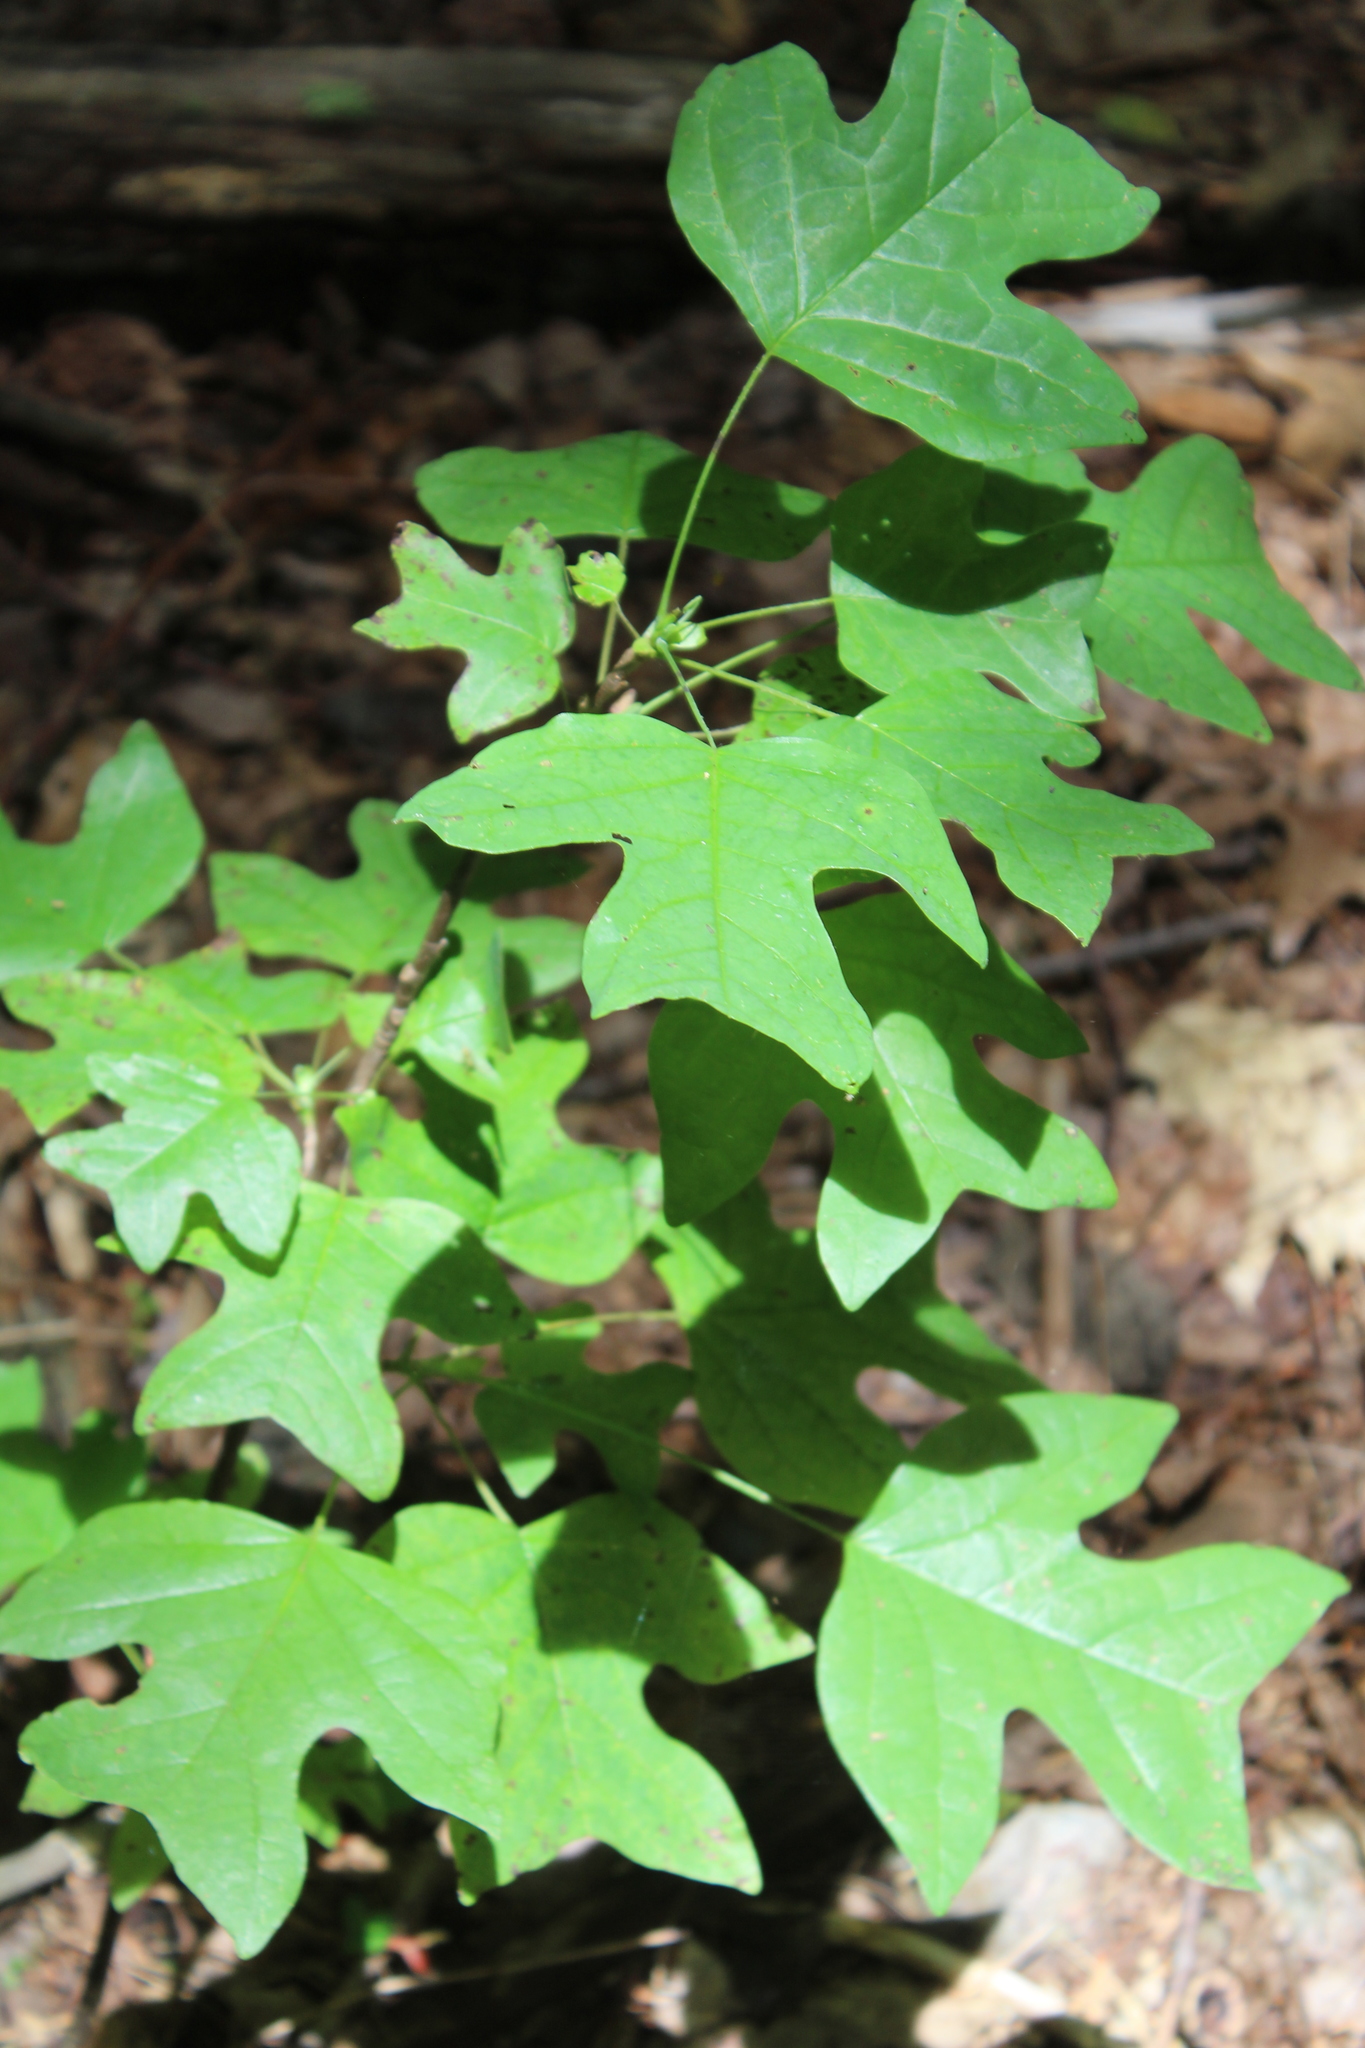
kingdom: Plantae
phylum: Tracheophyta
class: Magnoliopsida
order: Magnoliales
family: Magnoliaceae
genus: Liriodendron
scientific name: Liriodendron tulipifera
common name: Tulip tree
